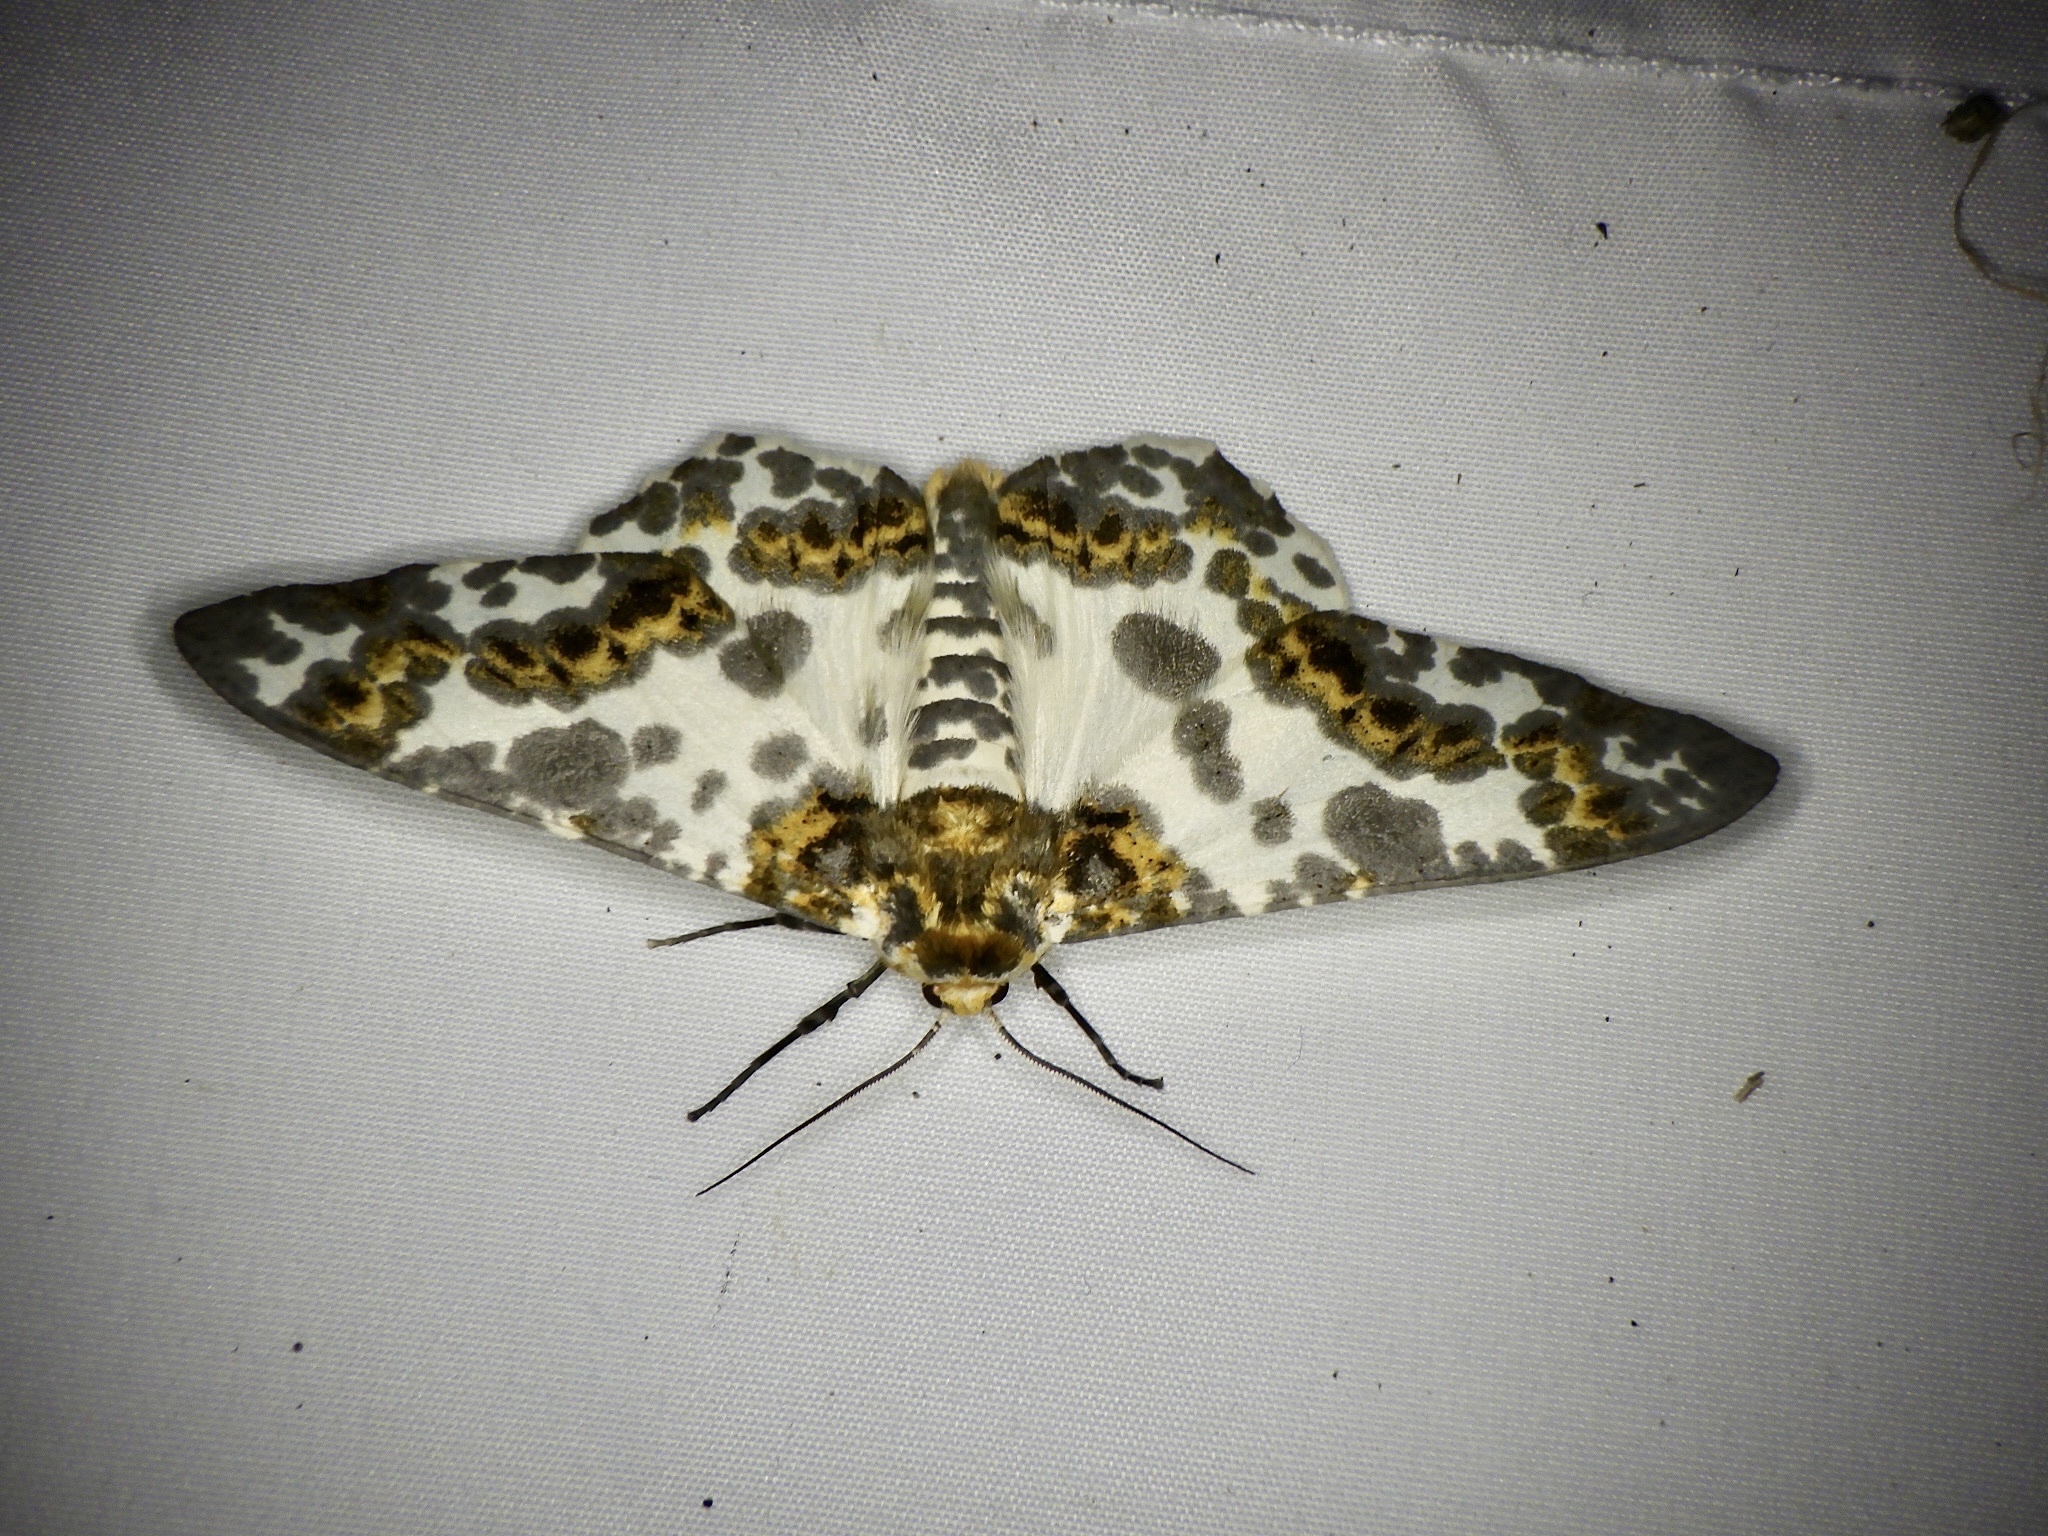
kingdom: Animalia
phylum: Arthropoda
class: Insecta
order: Lepidoptera
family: Geometridae
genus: Biston
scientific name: Biston panterinaria
